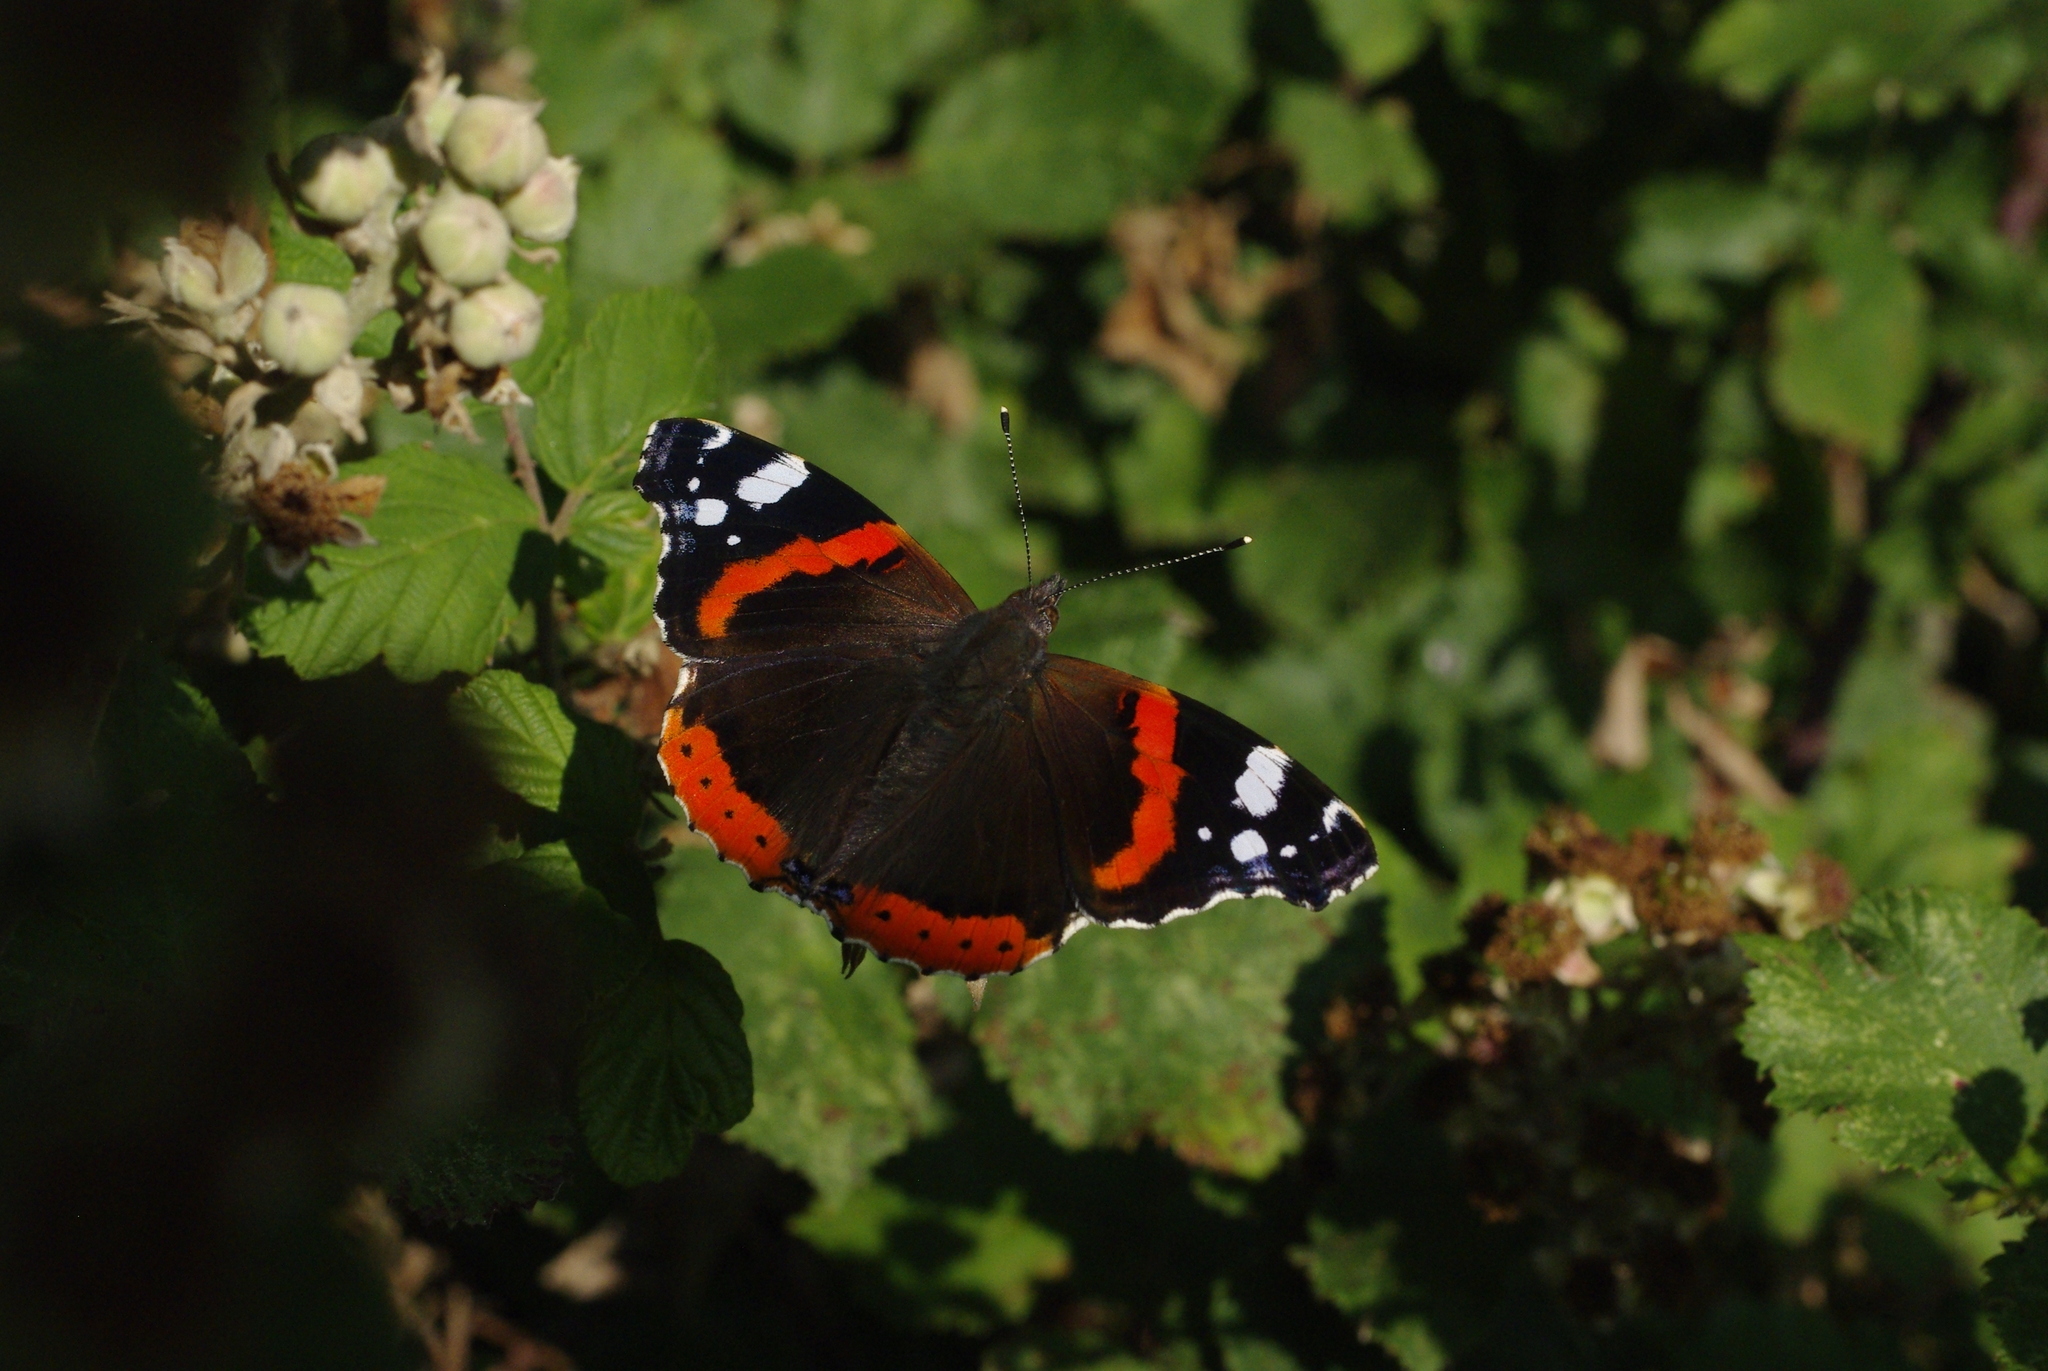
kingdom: Animalia
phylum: Arthropoda
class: Insecta
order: Lepidoptera
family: Nymphalidae
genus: Vanessa
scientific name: Vanessa atalanta
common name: Red admiral
